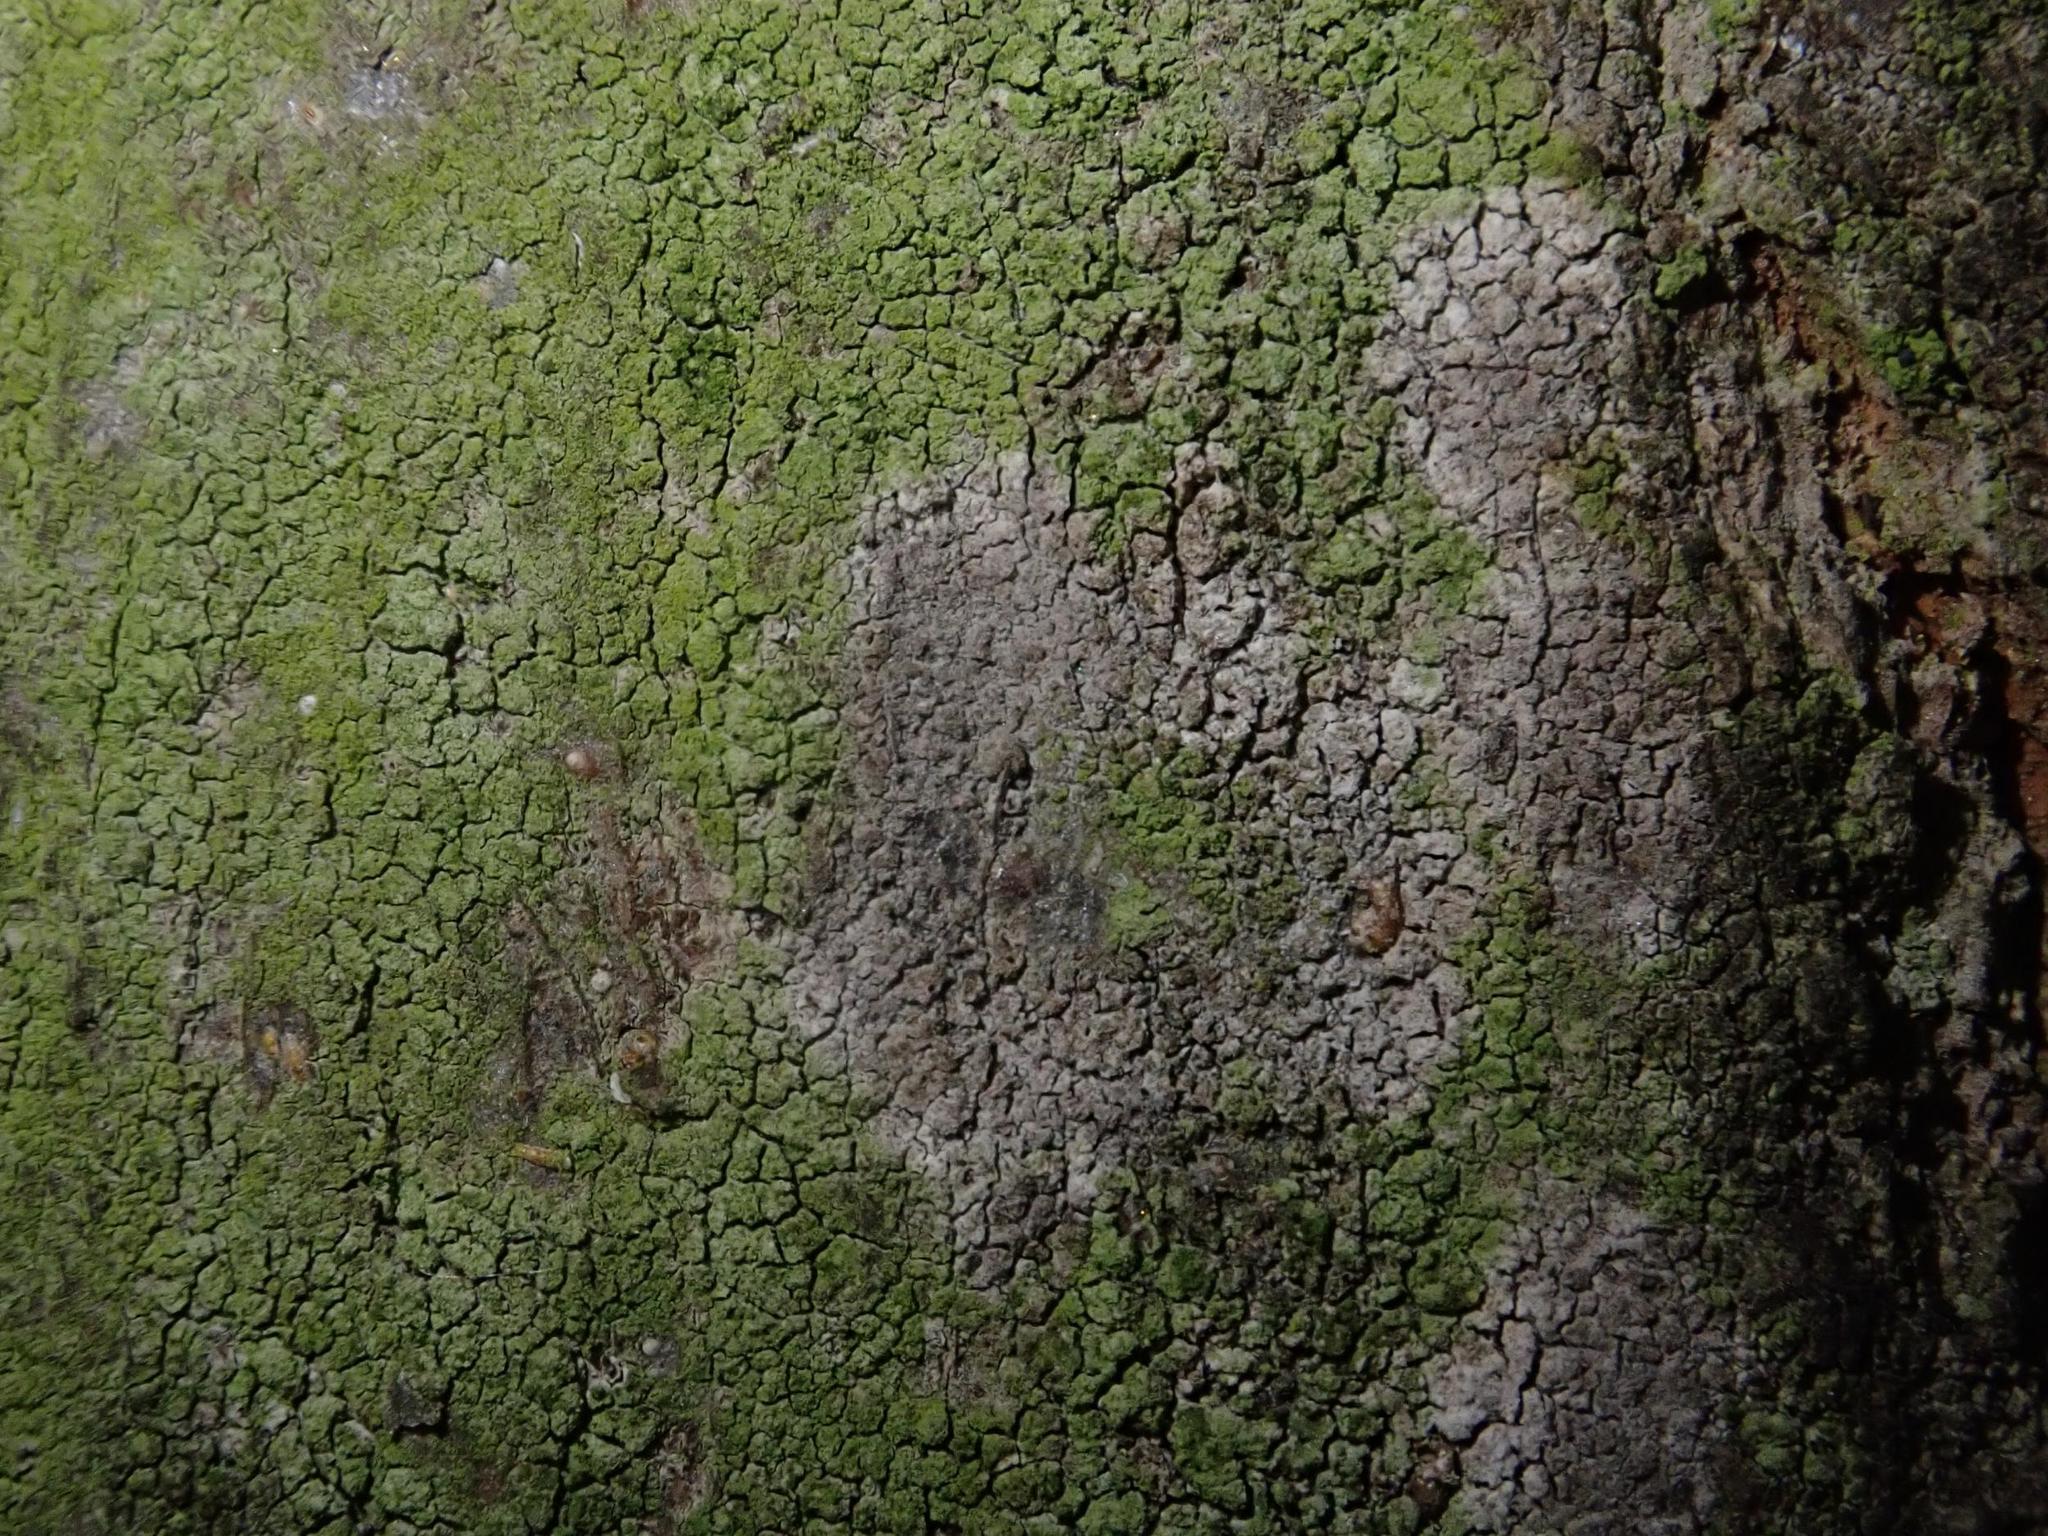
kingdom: Fungi
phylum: Basidiomycota
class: Agaricomycetes
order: Atheliales
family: Atheliaceae
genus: Athelia
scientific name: Athelia arachnoidea
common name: Candelabra duster
